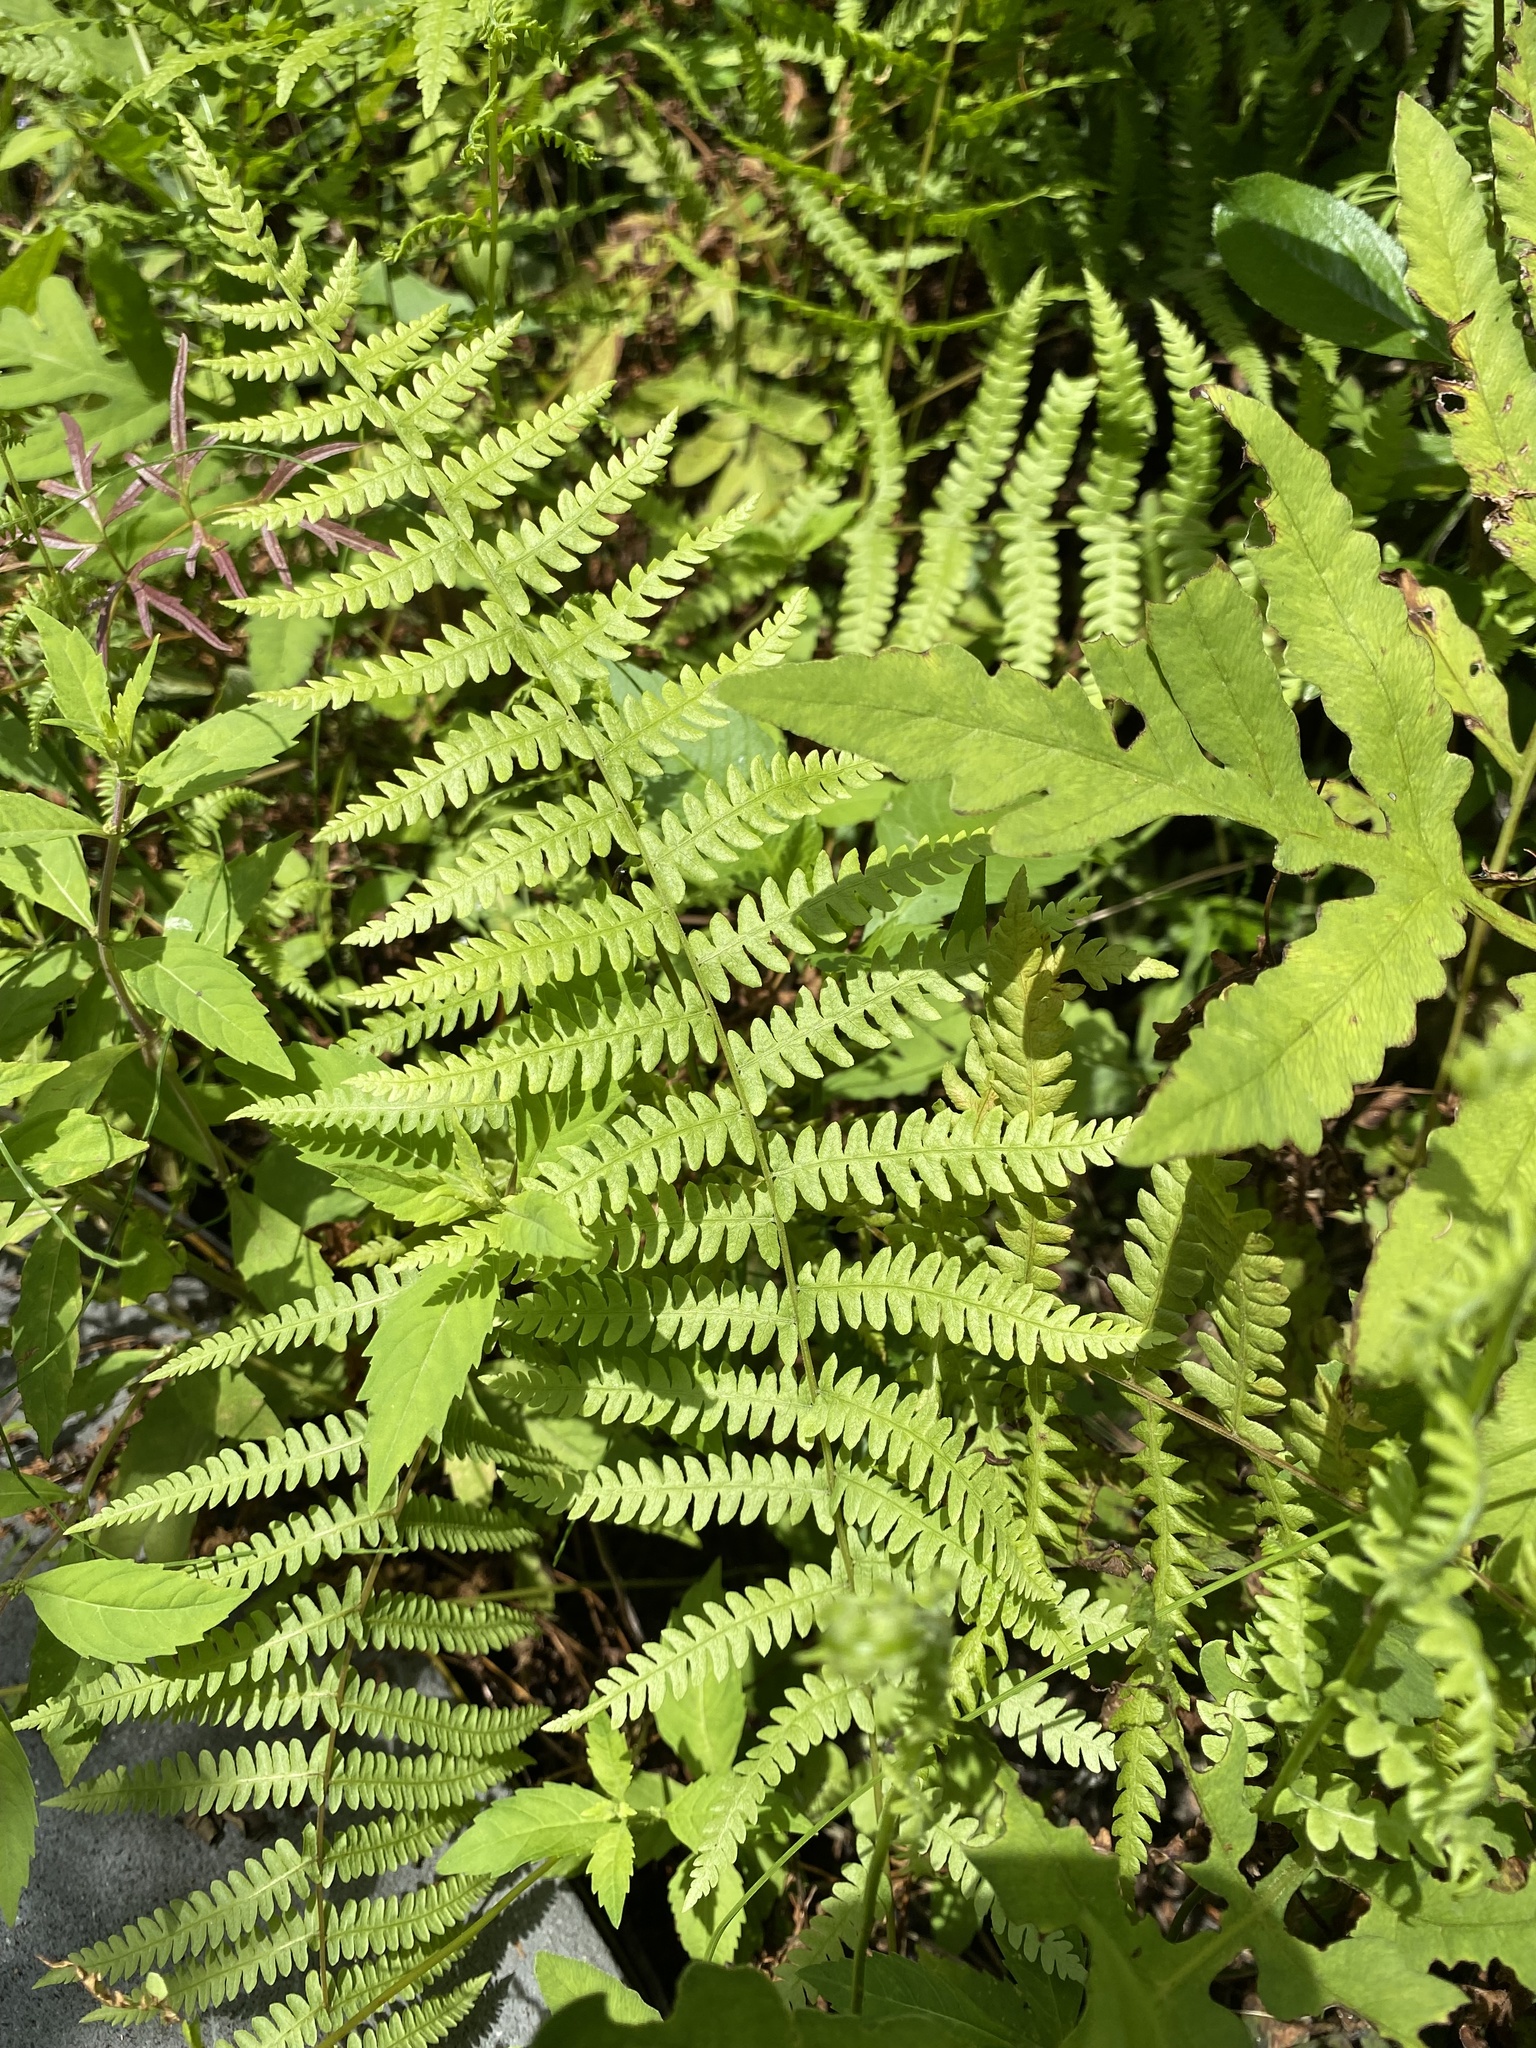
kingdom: Plantae
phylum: Tracheophyta
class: Polypodiopsida
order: Polypodiales
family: Thelypteridaceae
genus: Thelypteris
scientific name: Thelypteris palustris
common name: Marsh fern
